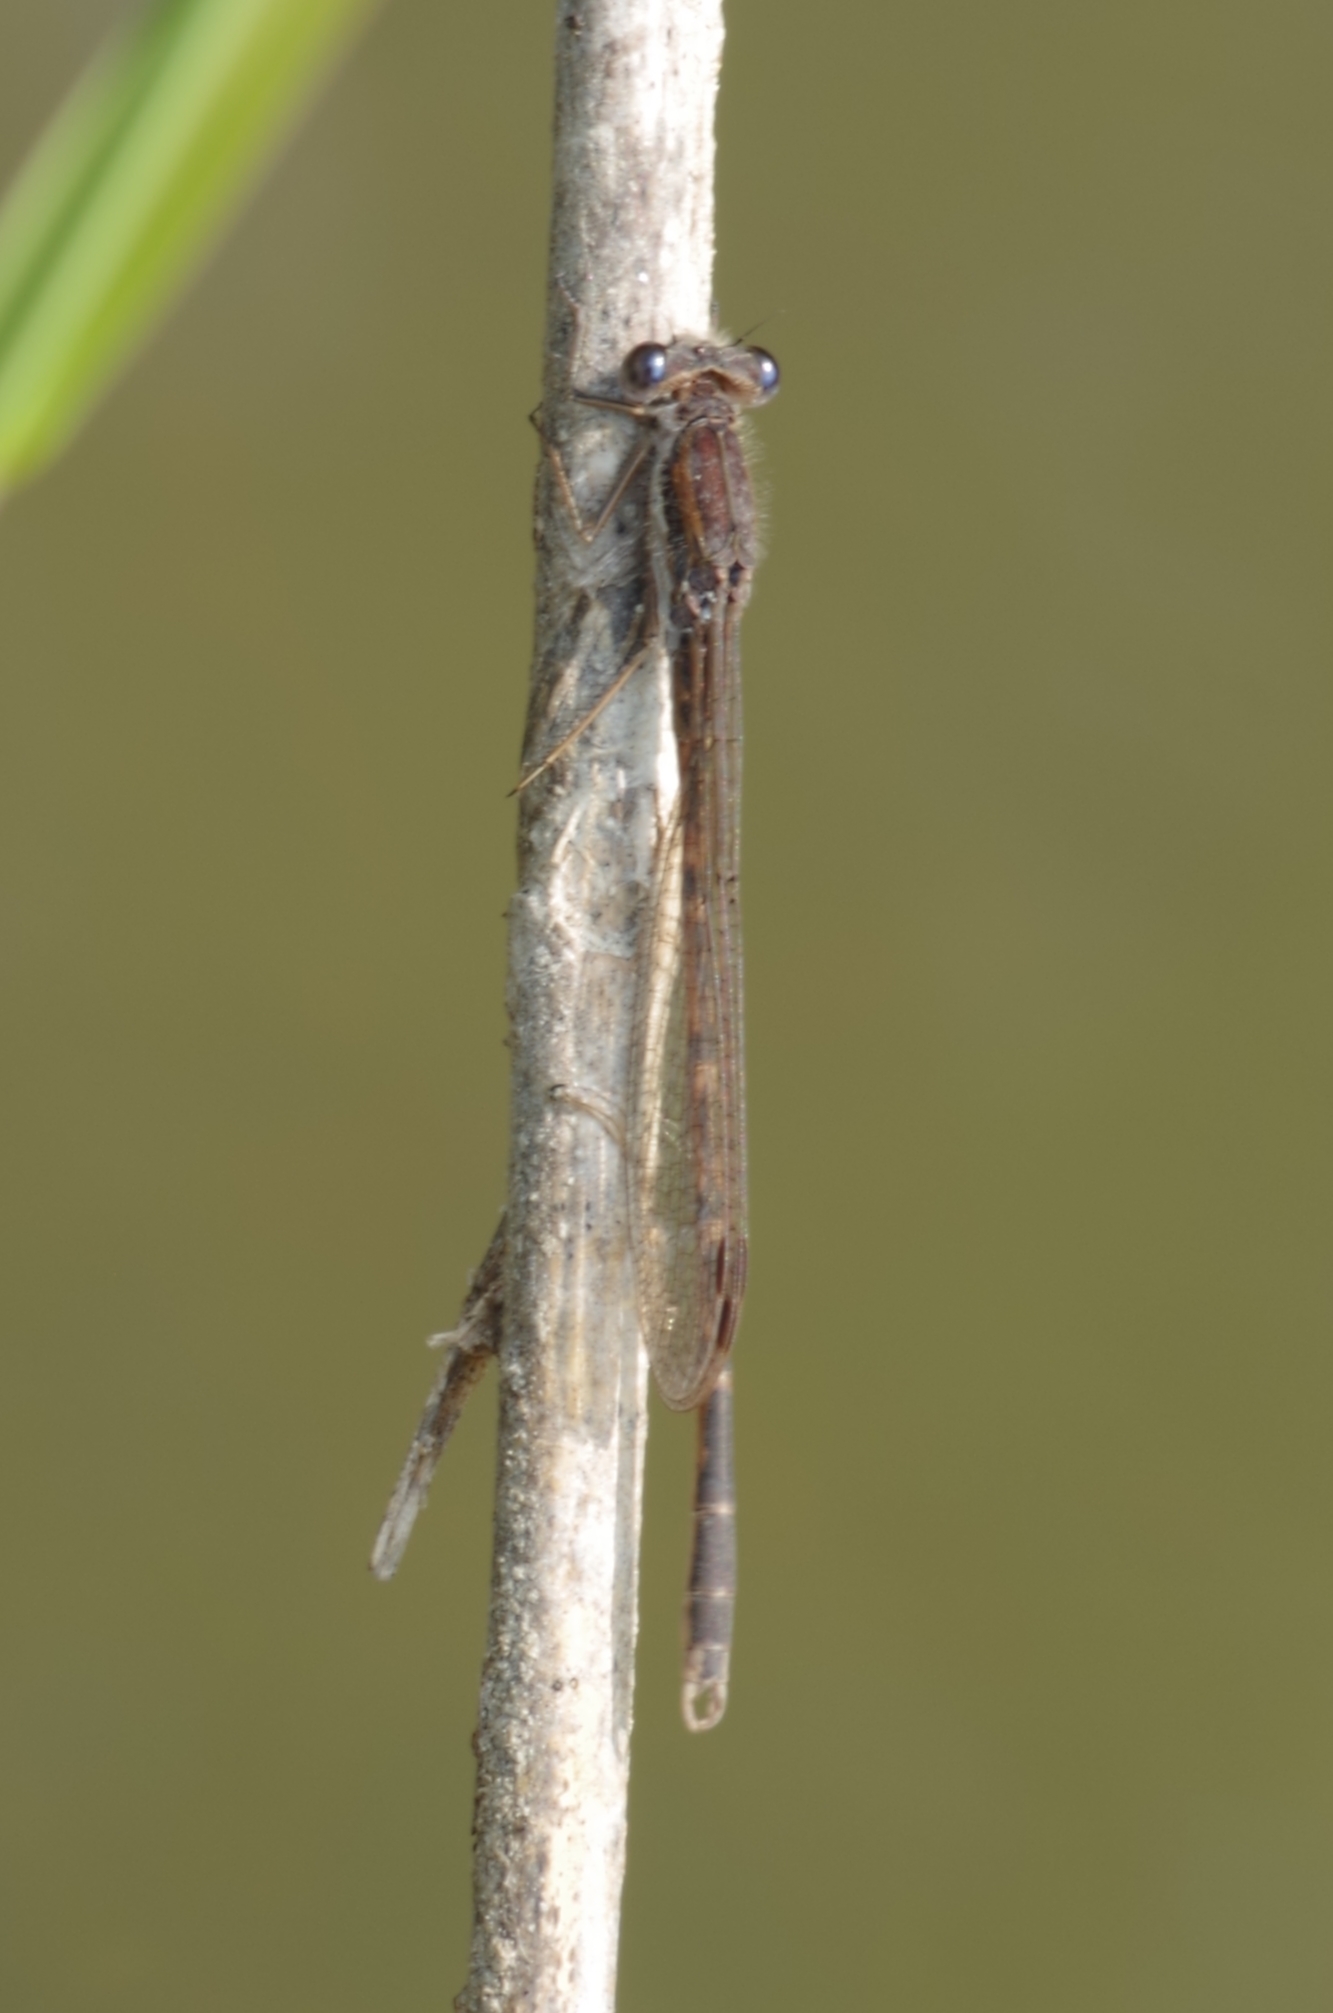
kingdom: Animalia
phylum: Arthropoda
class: Insecta
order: Odonata
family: Lestidae
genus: Sympecma
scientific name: Sympecma fusca
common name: Common winter damsel
